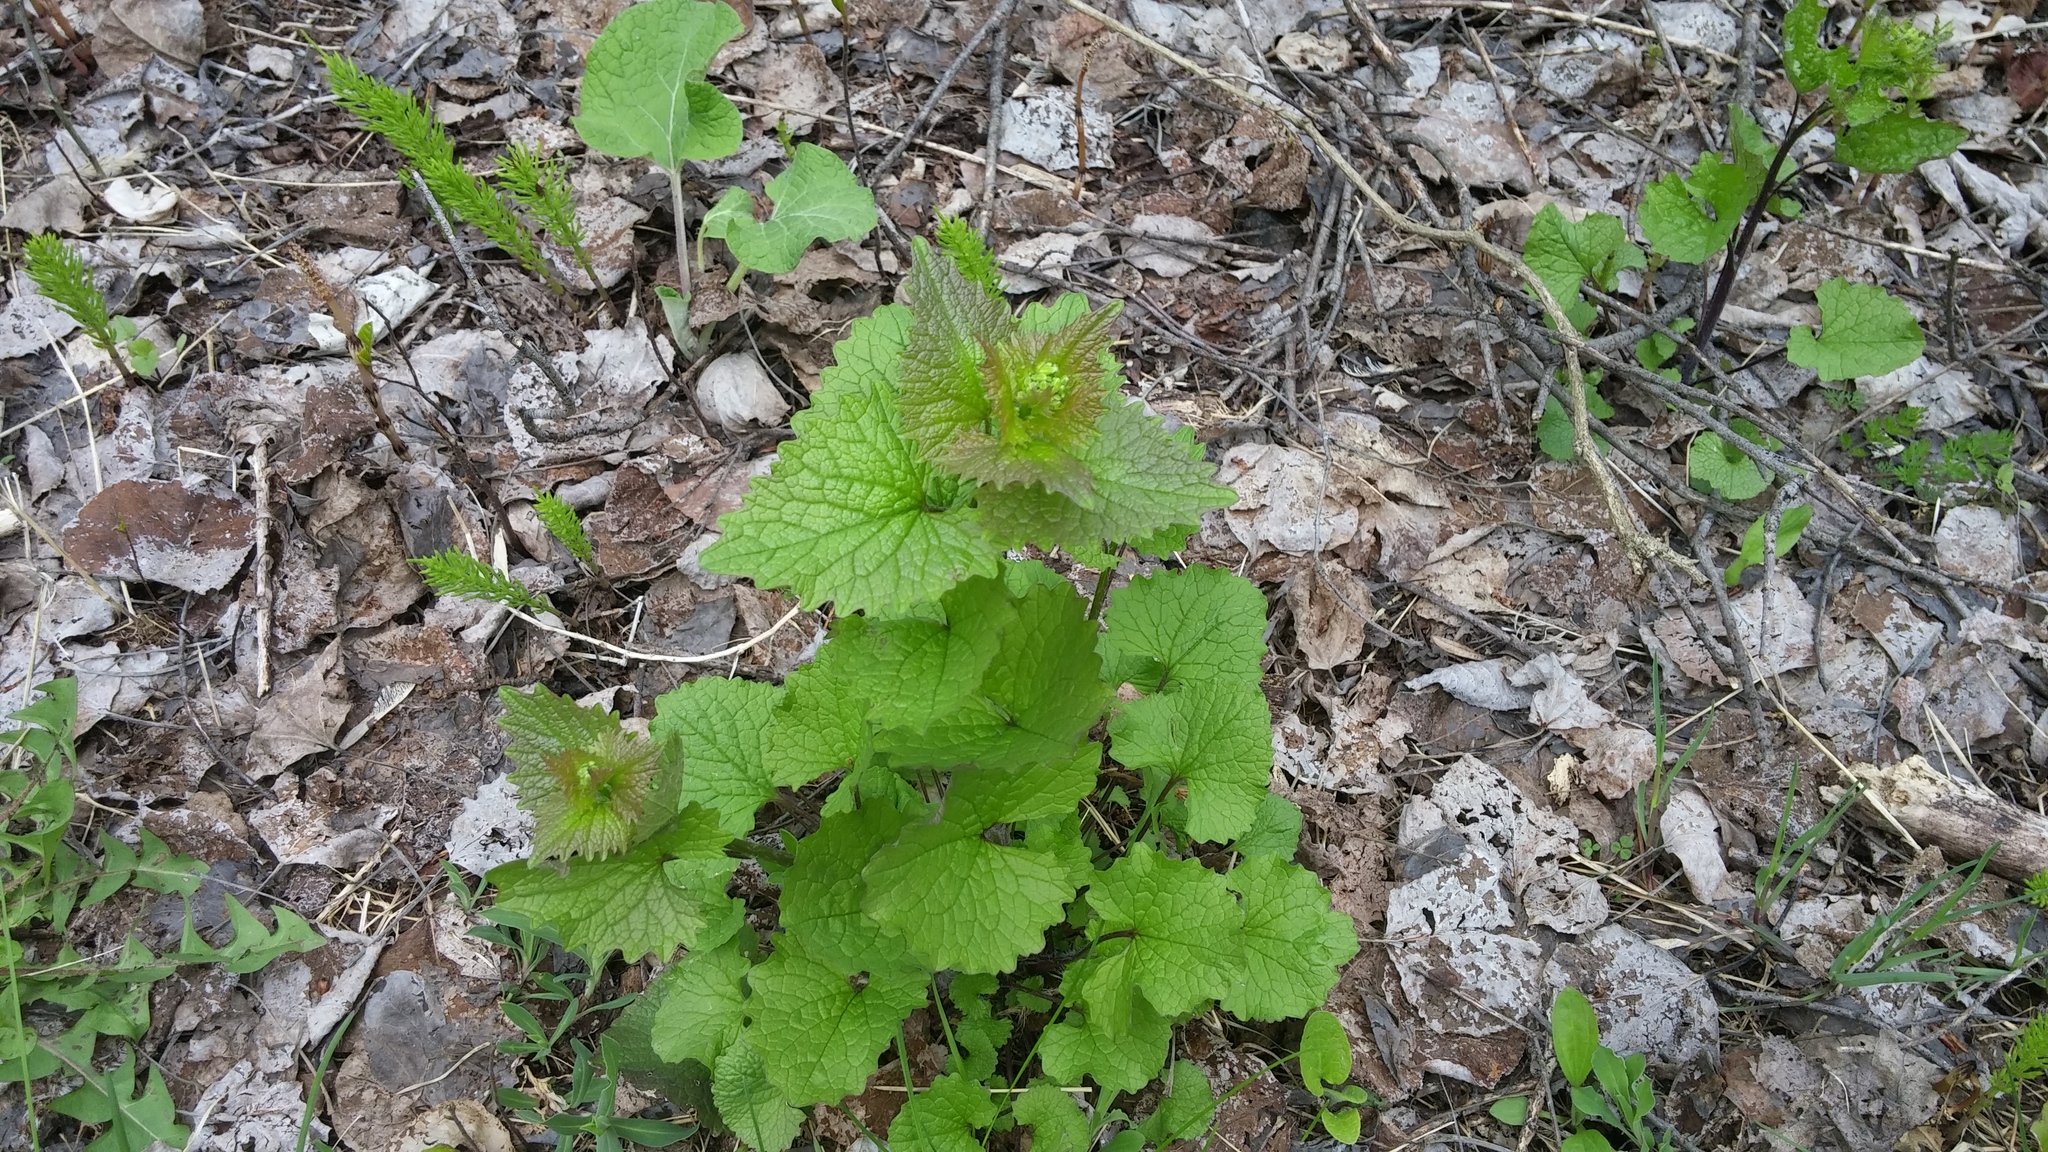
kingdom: Plantae
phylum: Tracheophyta
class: Magnoliopsida
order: Brassicales
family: Brassicaceae
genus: Alliaria
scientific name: Alliaria petiolata
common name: Garlic mustard
